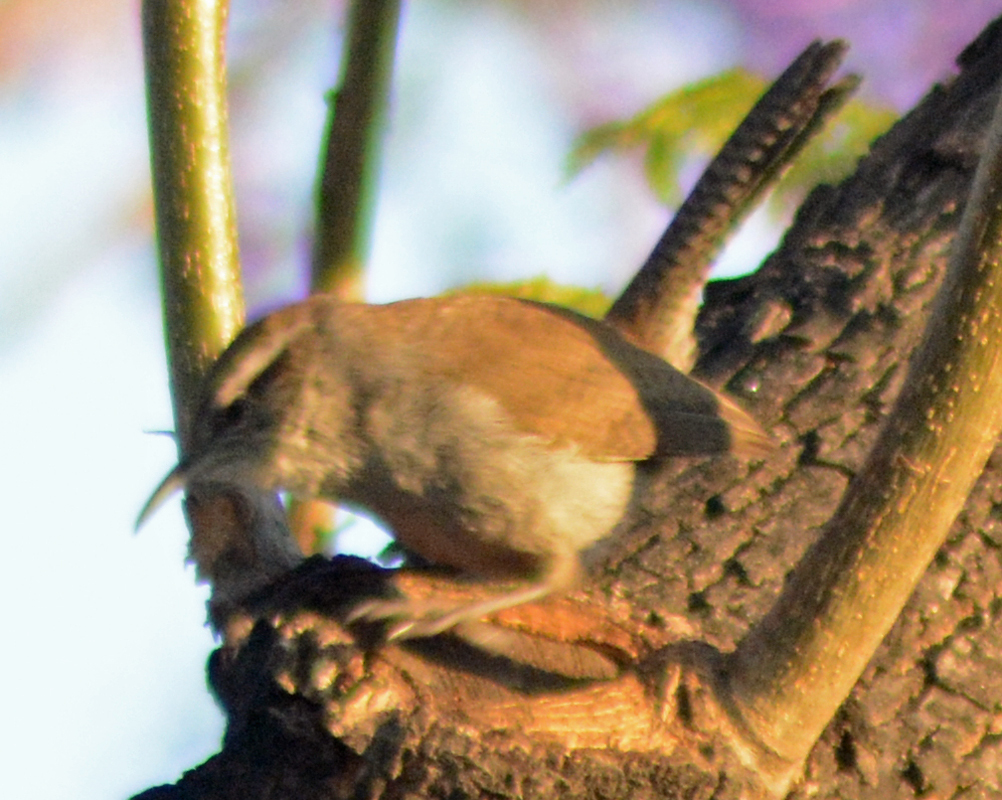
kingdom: Animalia
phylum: Chordata
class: Aves
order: Passeriformes
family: Troglodytidae
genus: Thryomanes
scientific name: Thryomanes bewickii
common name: Bewick's wren
